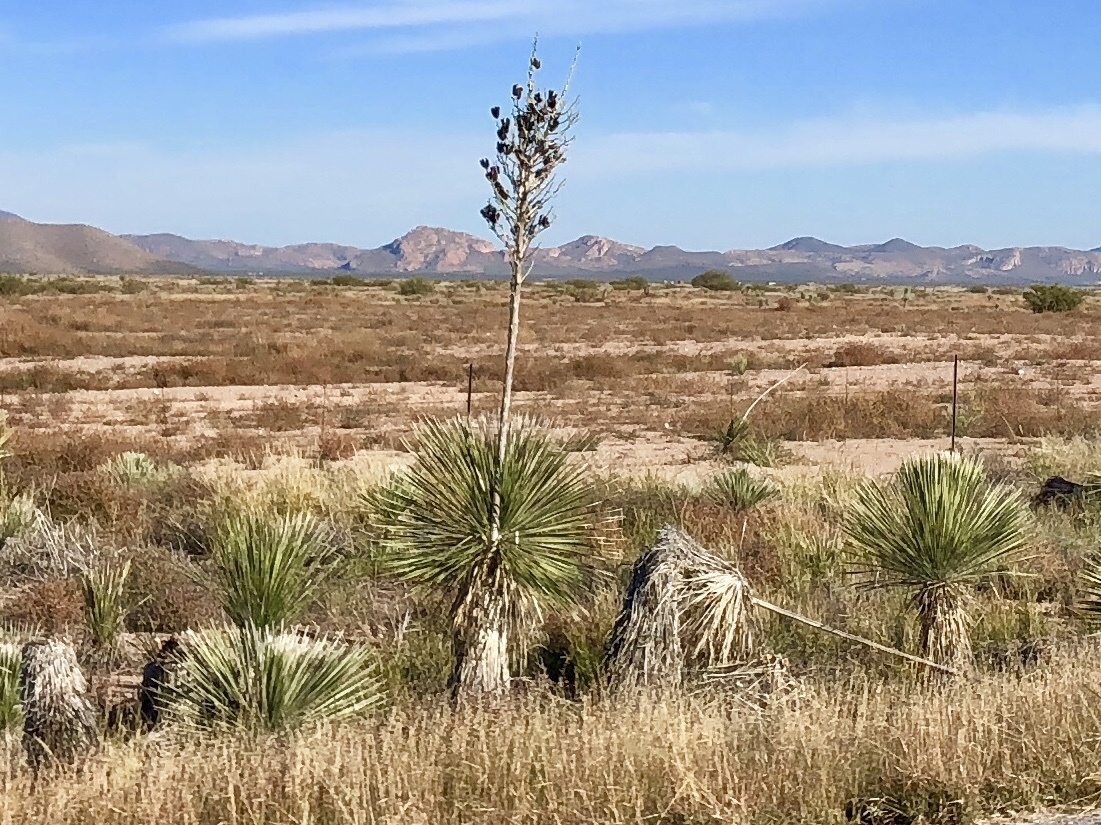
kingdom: Plantae
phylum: Tracheophyta
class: Liliopsida
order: Asparagales
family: Asparagaceae
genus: Yucca
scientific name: Yucca elata
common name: Palmella
